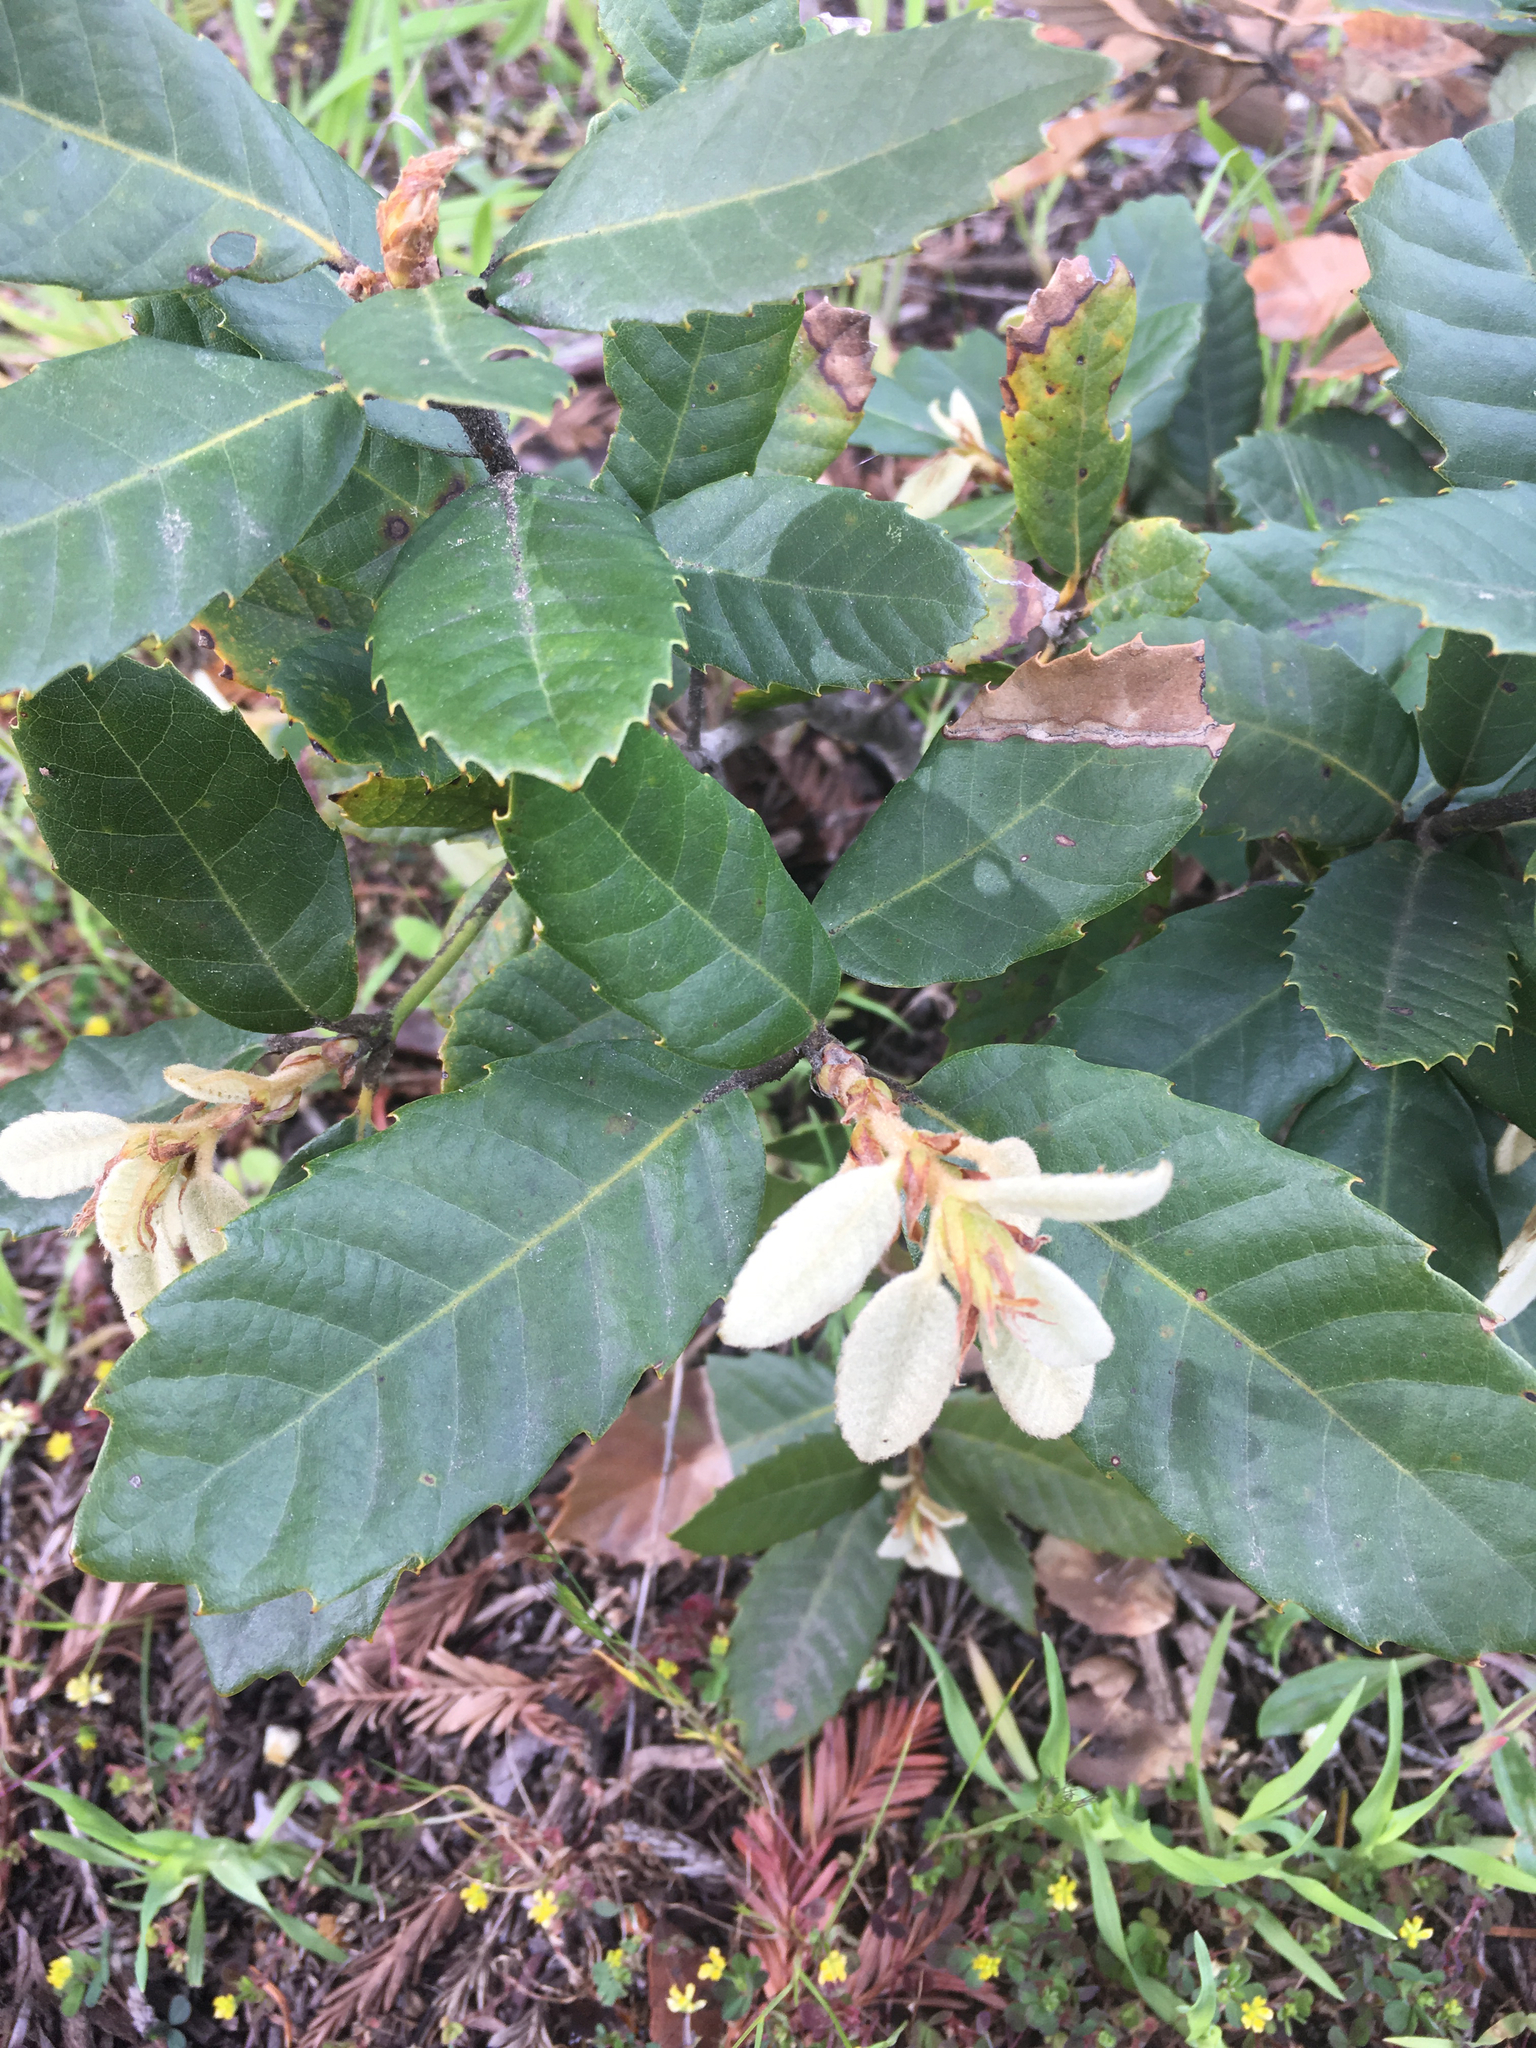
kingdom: Plantae
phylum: Tracheophyta
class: Magnoliopsida
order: Fagales
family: Fagaceae
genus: Notholithocarpus
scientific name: Notholithocarpus densiflorus
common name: Tan bark oak
